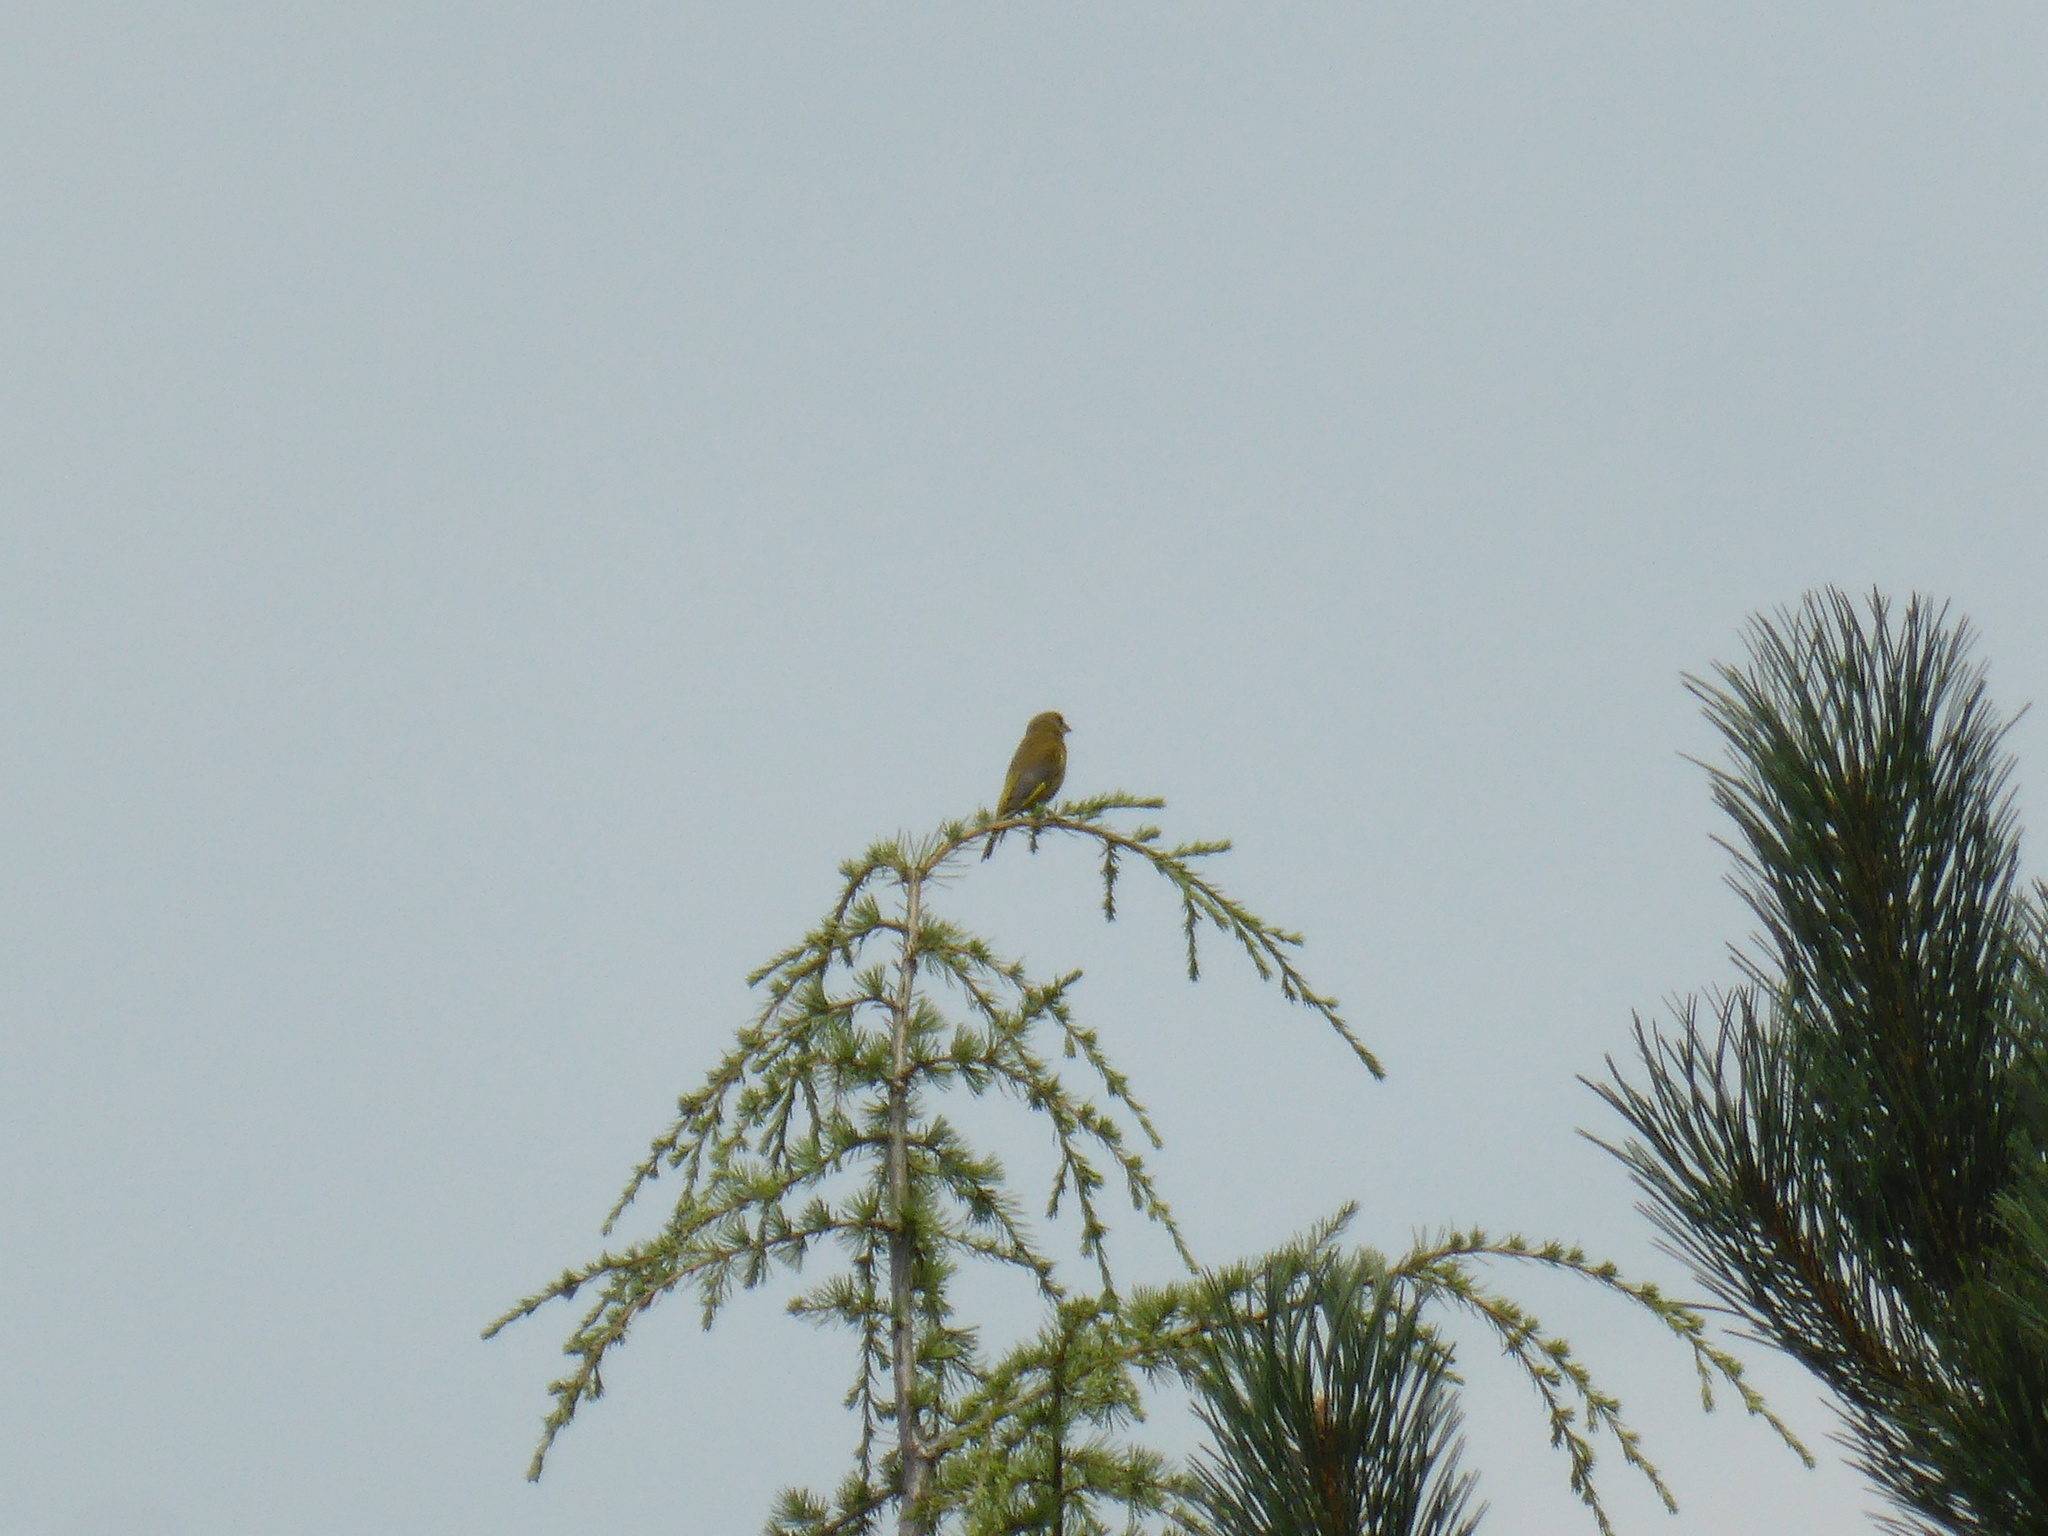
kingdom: Plantae
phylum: Tracheophyta
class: Liliopsida
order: Poales
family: Poaceae
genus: Chloris
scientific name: Chloris chloris
